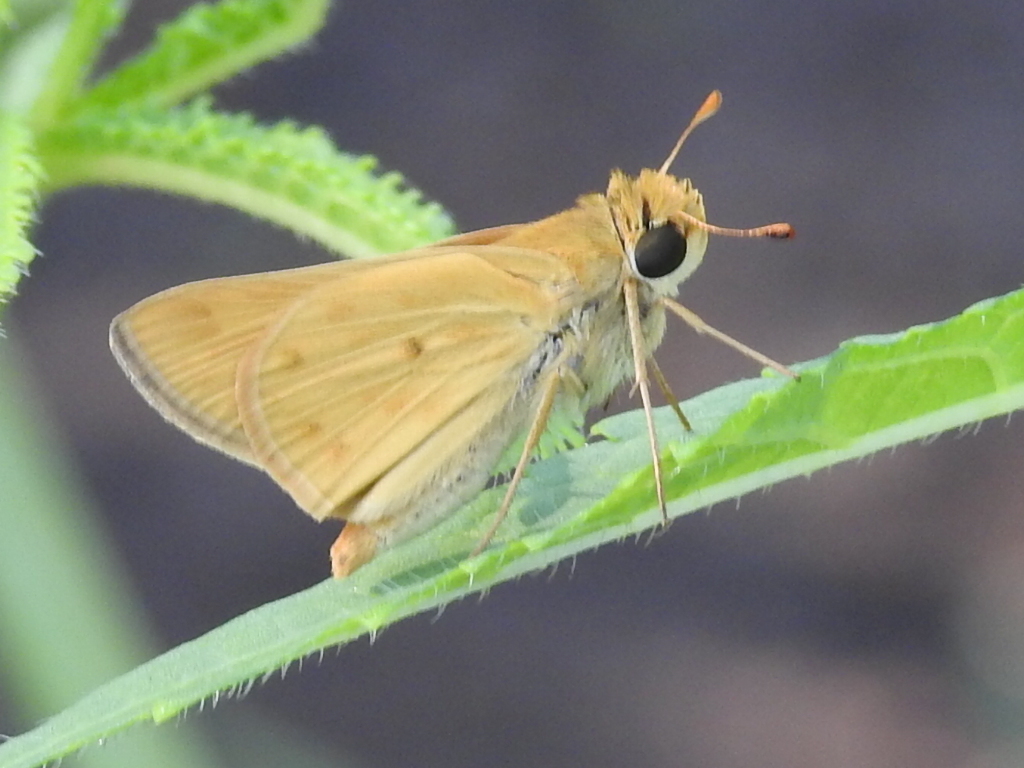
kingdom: Animalia
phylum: Arthropoda
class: Insecta
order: Lepidoptera
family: Hesperiidae
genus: Hylephila
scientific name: Hylephila phyleus
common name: Fiery skipper
